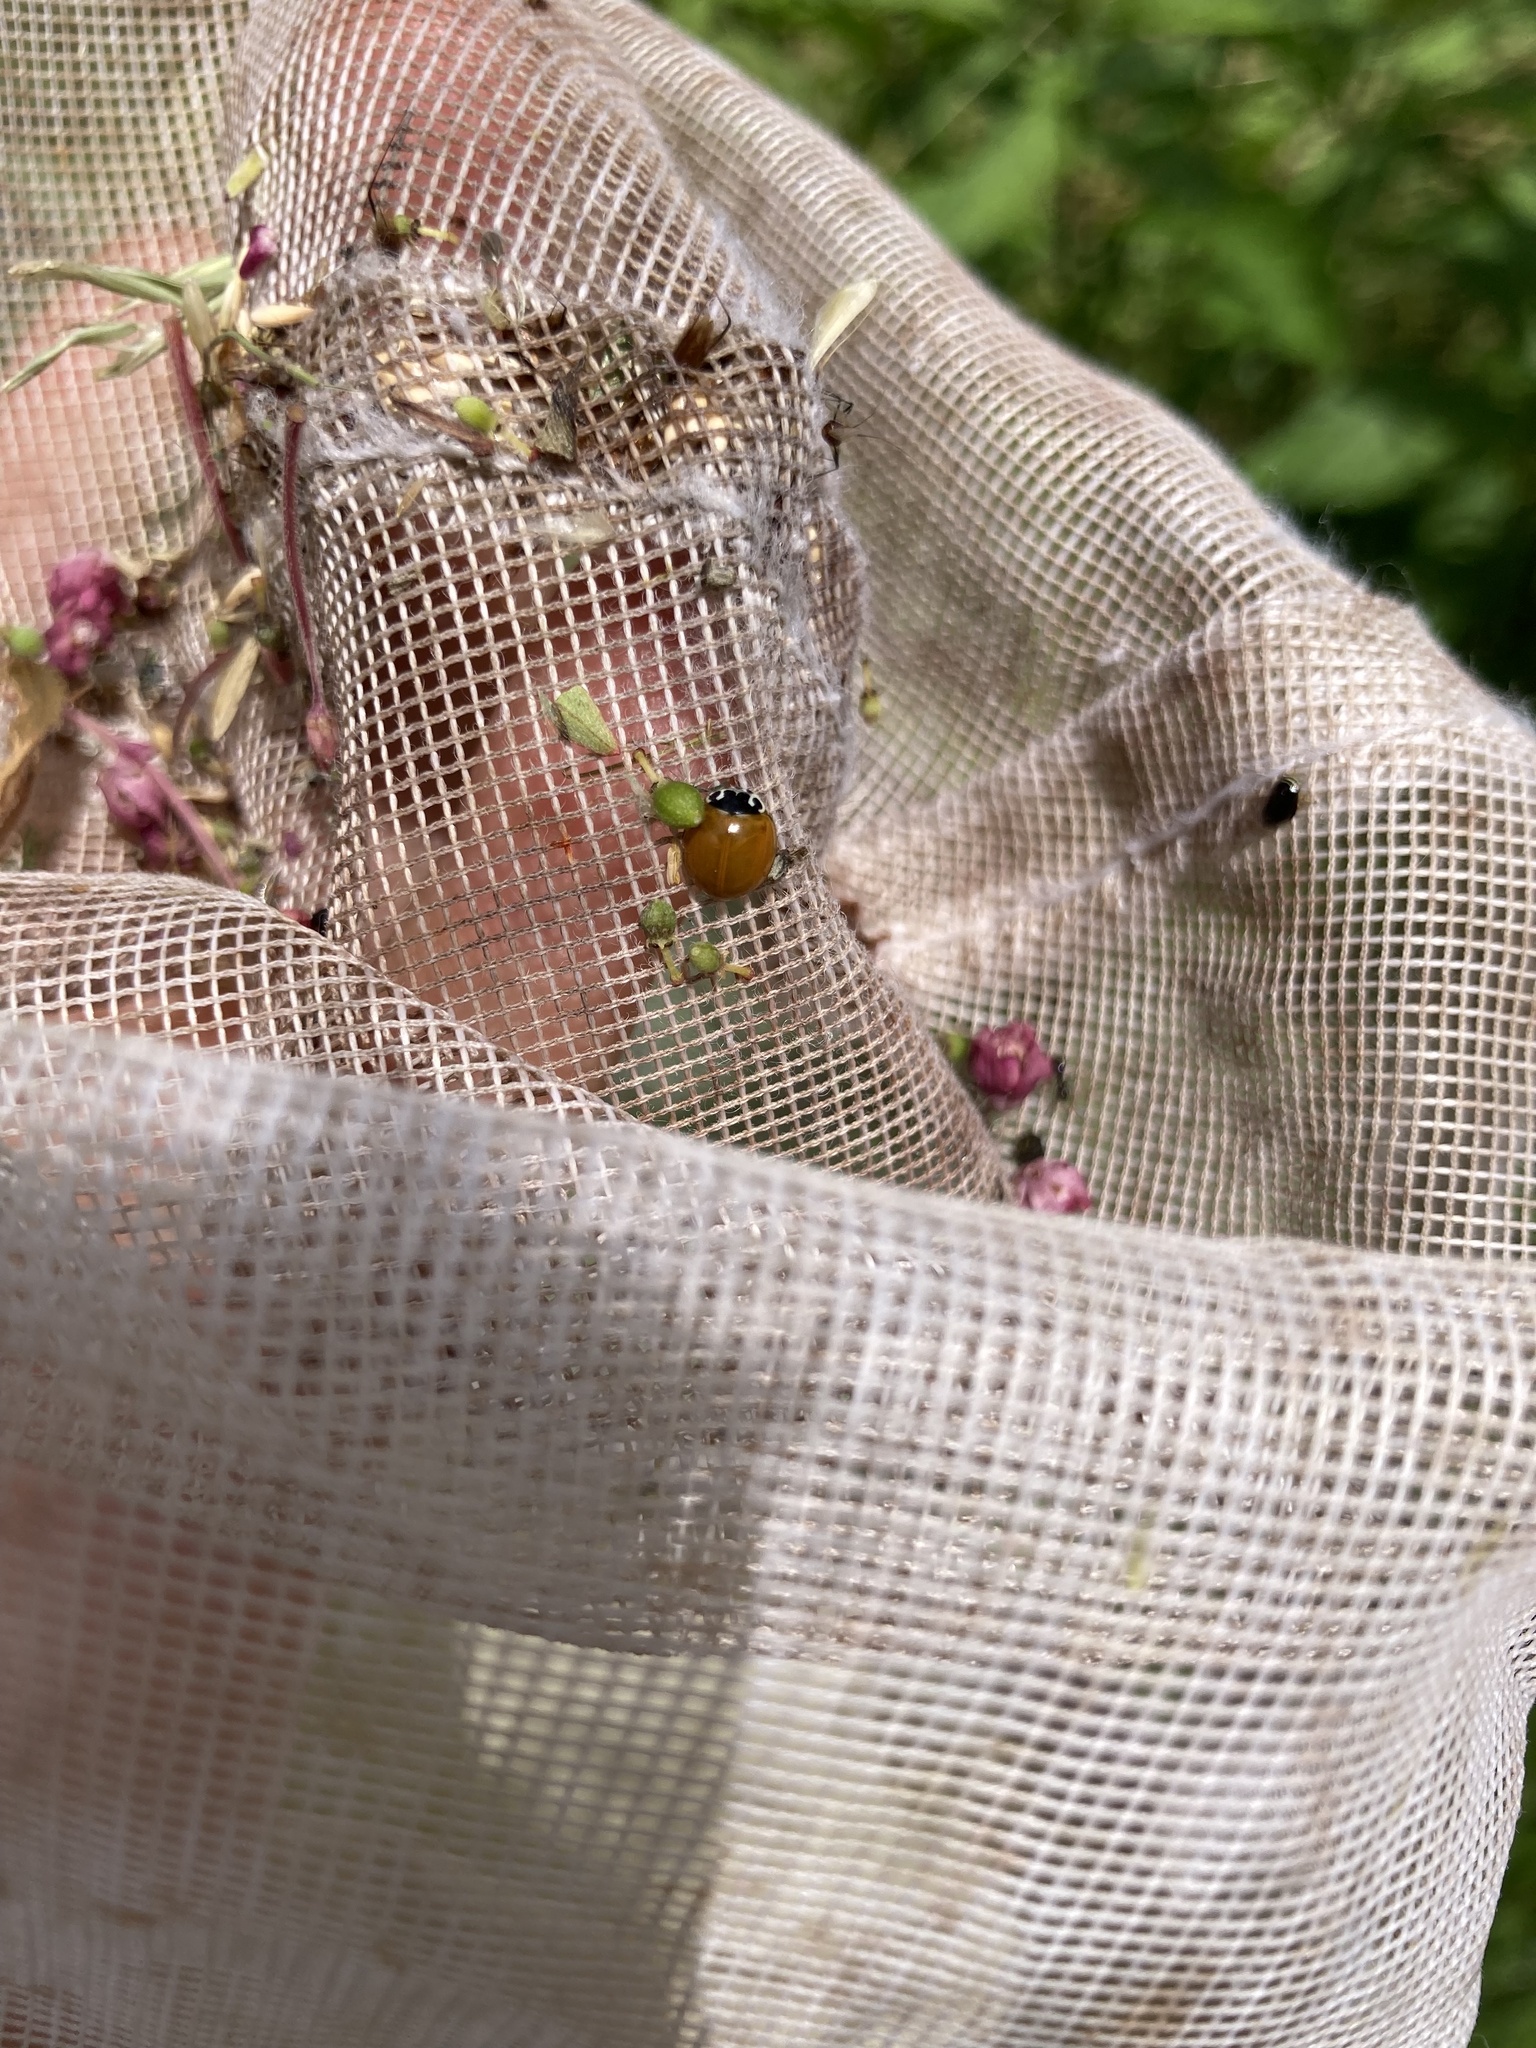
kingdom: Animalia
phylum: Arthropoda
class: Insecta
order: Coleoptera
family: Coccinellidae
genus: Cycloneda
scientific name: Cycloneda munda
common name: Polished lady beetle
